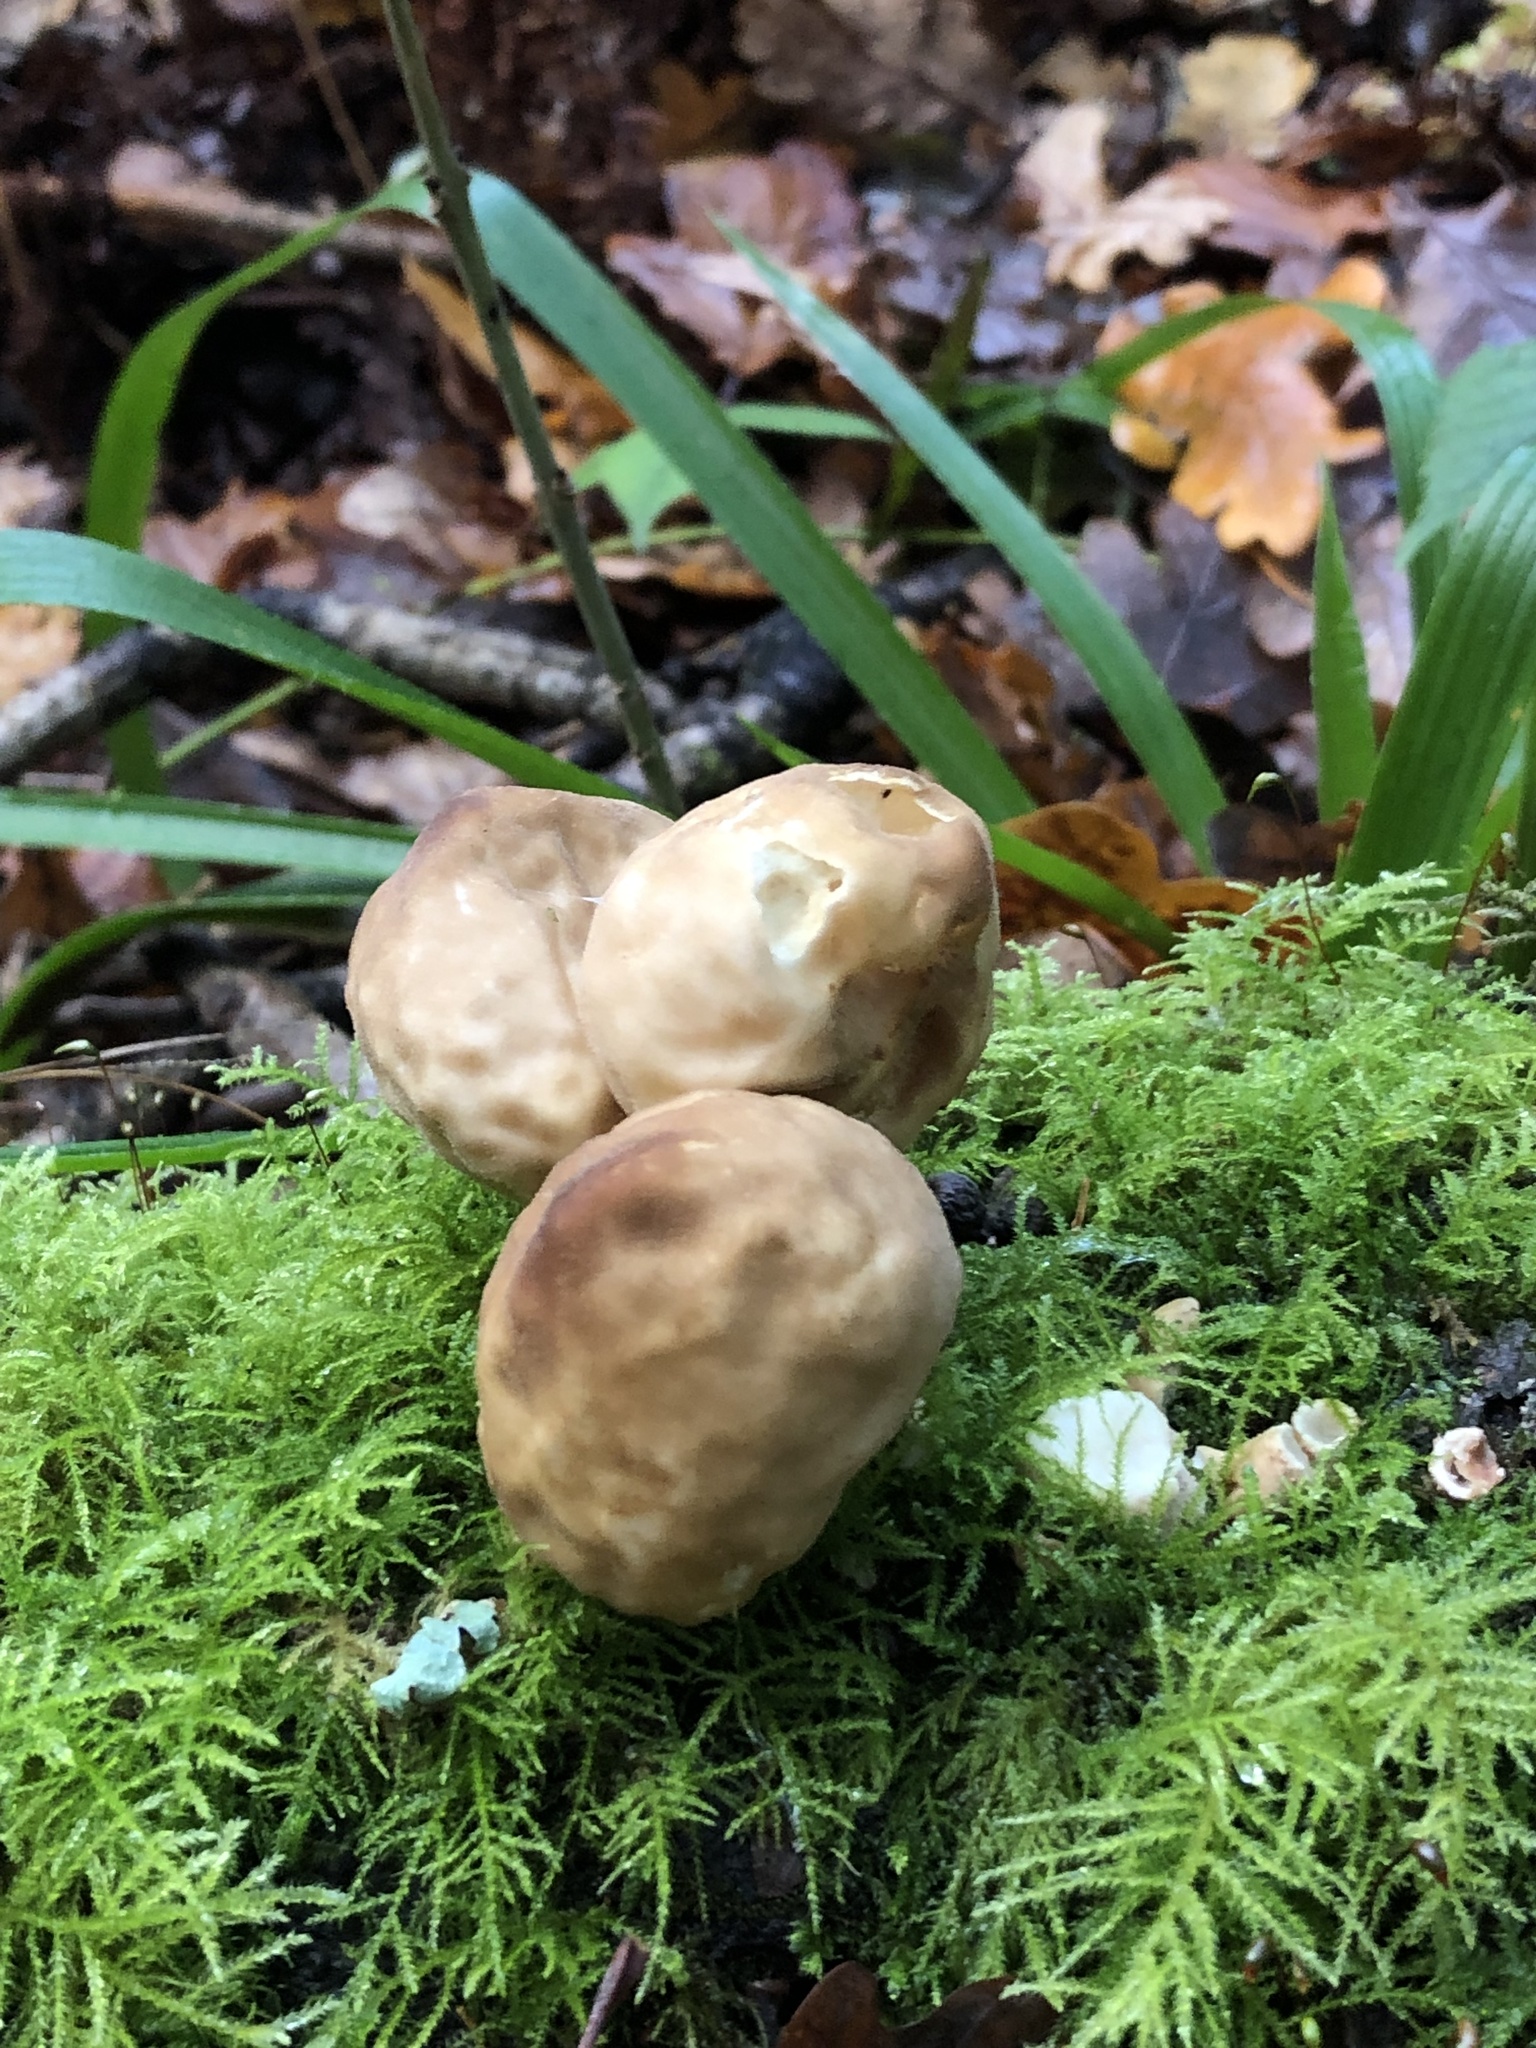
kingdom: Fungi
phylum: Basidiomycota
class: Agaricomycetes
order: Agaricales
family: Lycoperdaceae
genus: Apioperdon
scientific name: Apioperdon pyriforme
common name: Pear-shaped puffball
